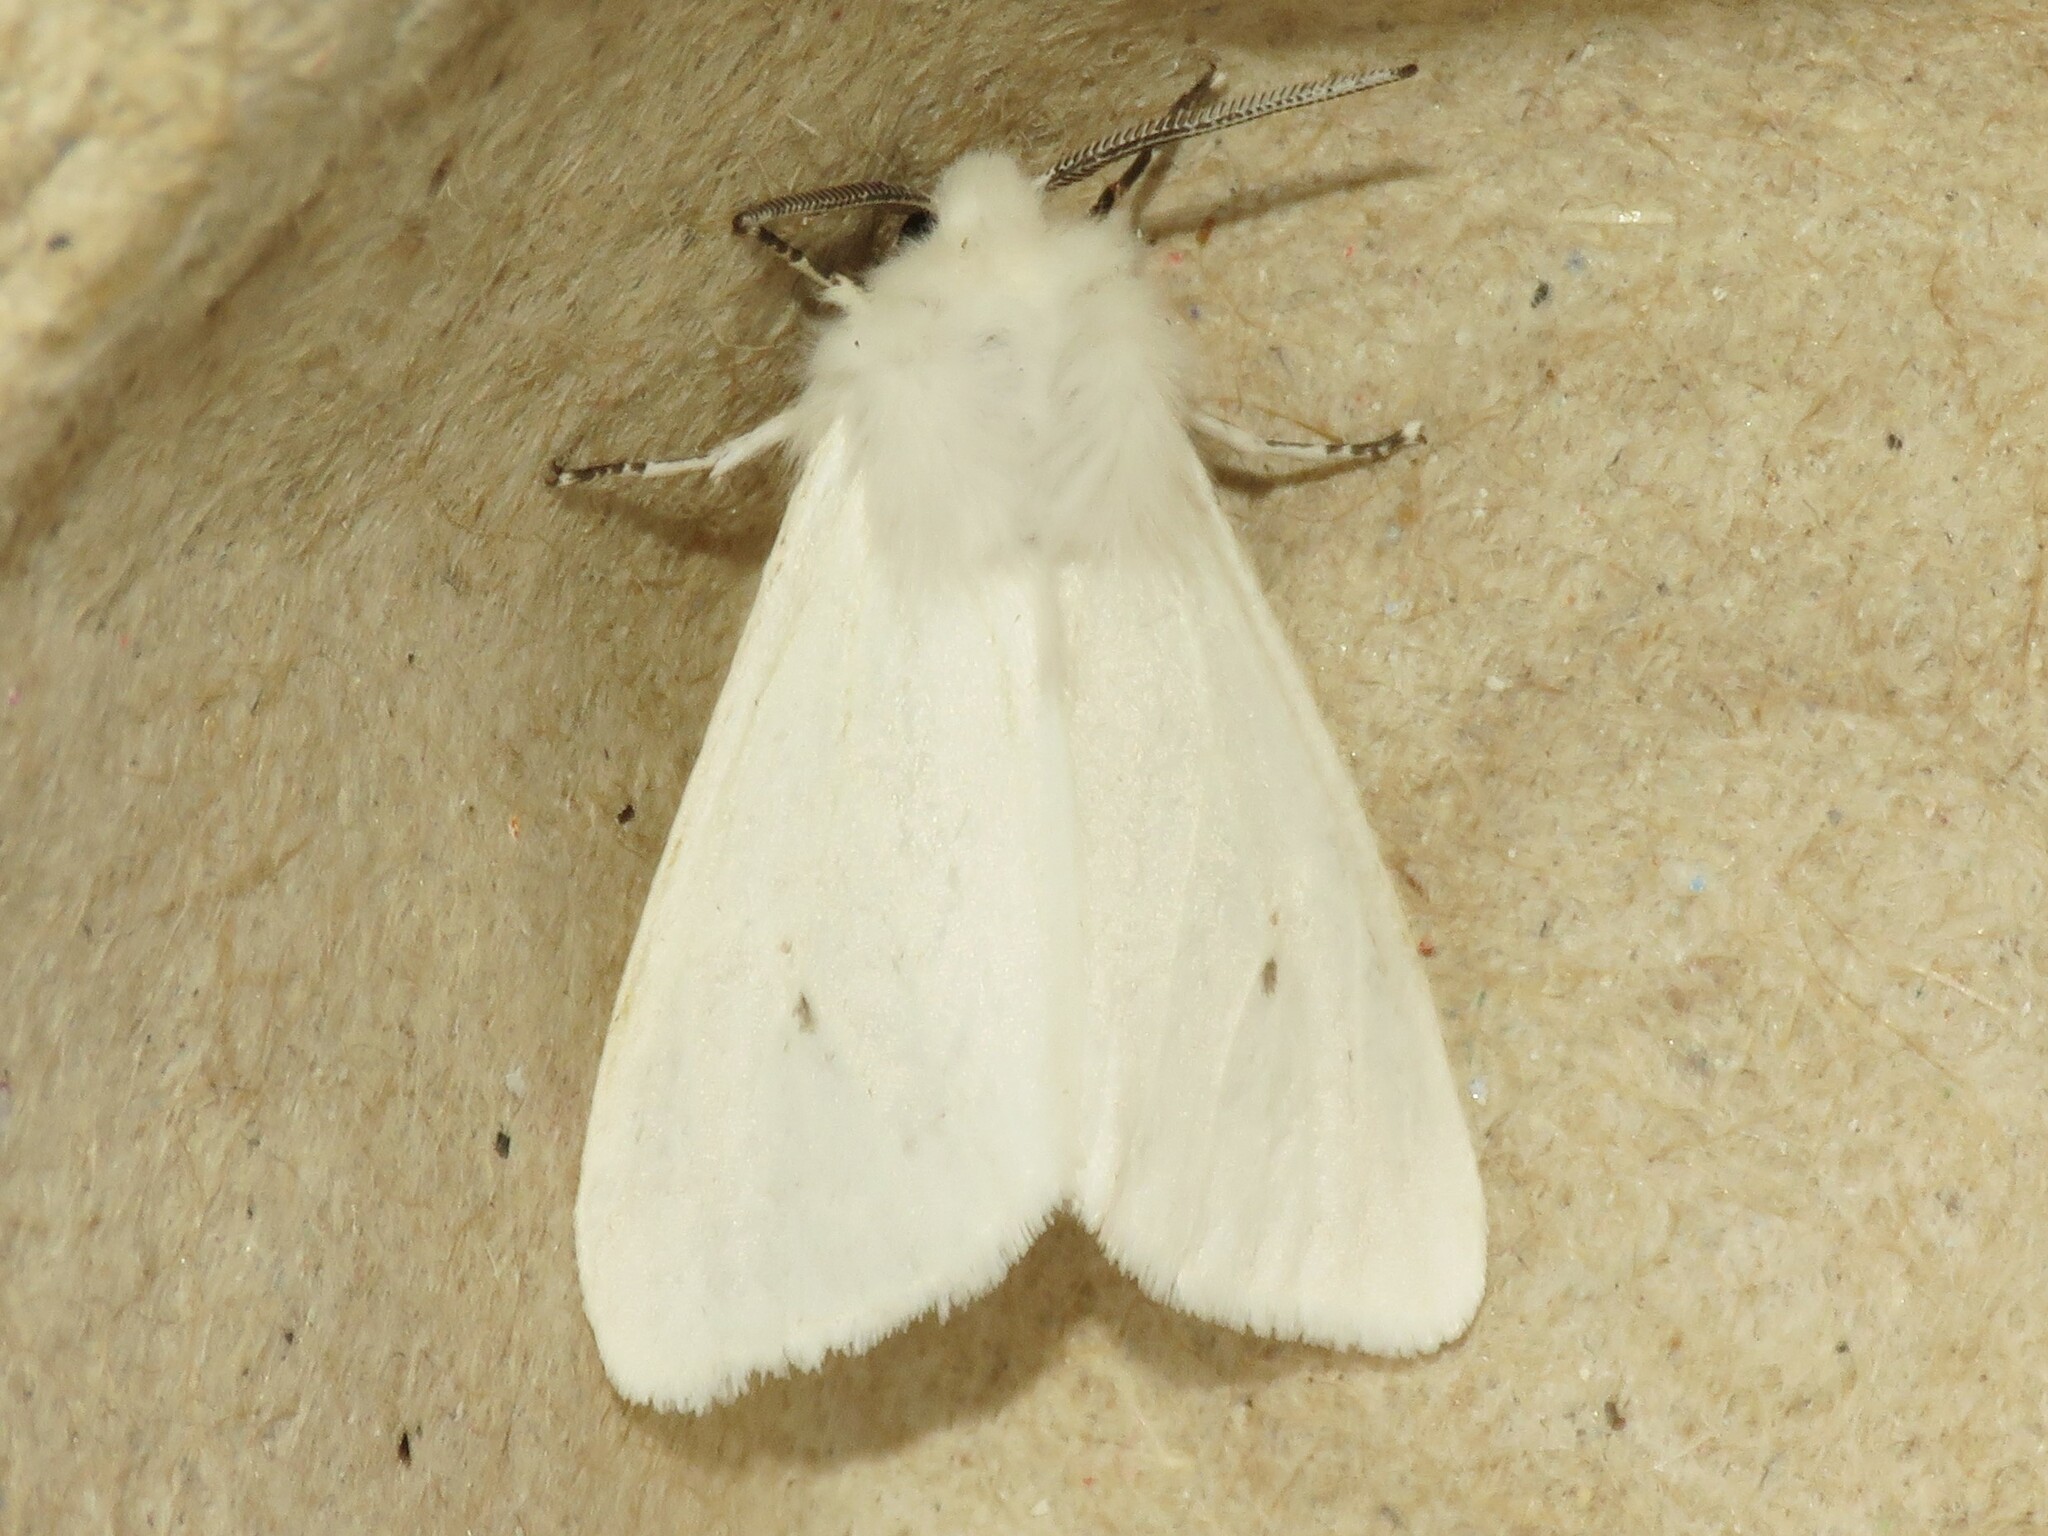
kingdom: Animalia
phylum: Arthropoda
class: Insecta
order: Lepidoptera
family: Erebidae
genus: Hyphantria
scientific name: Hyphantria cunea
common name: American white moth
